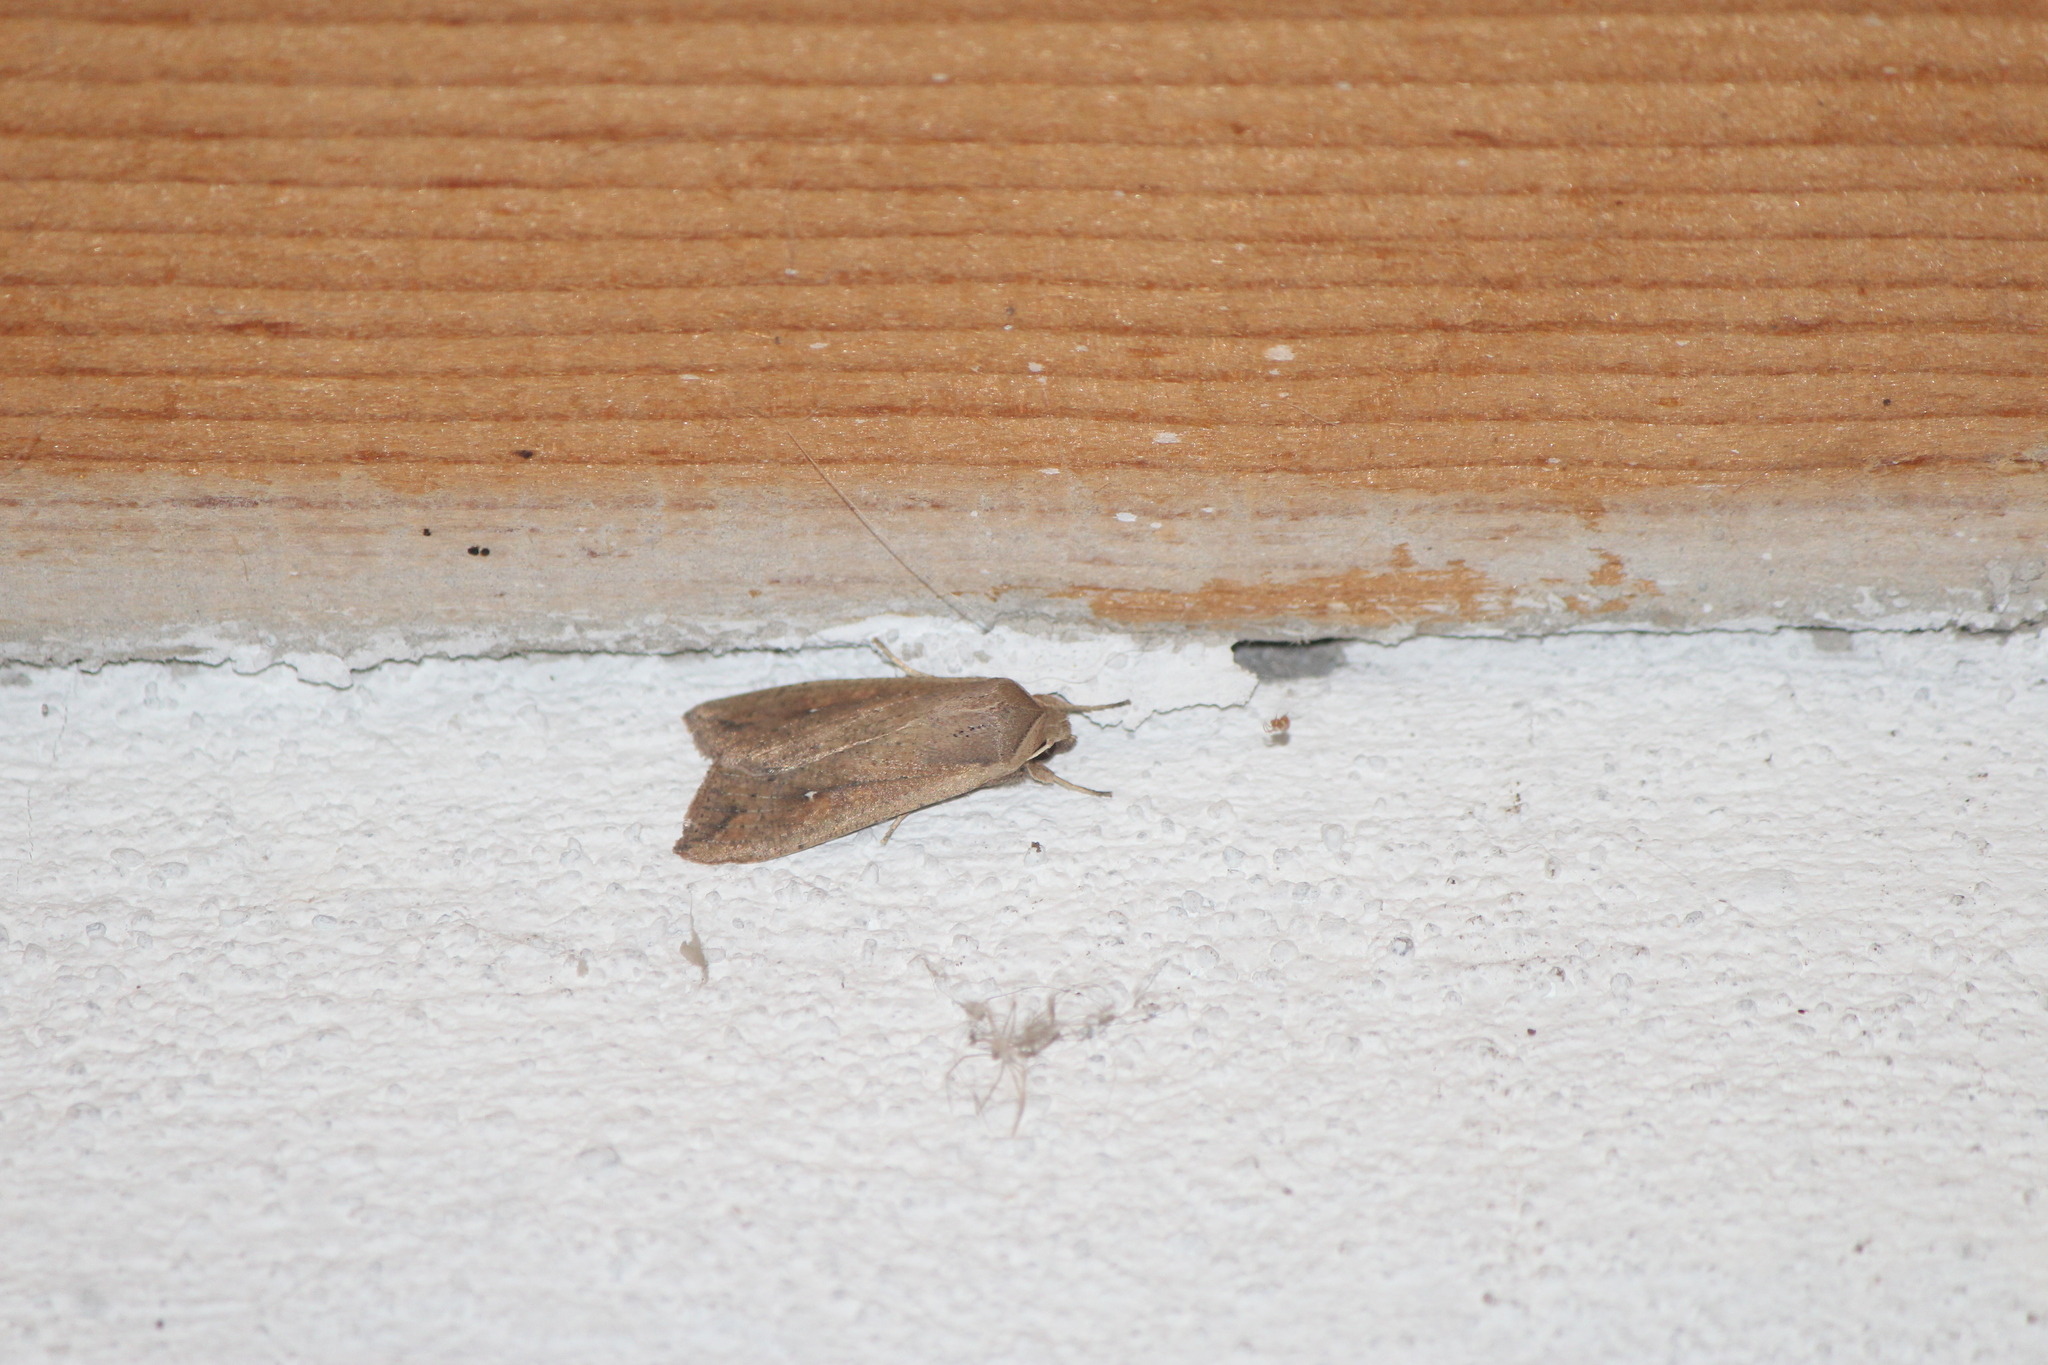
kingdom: Animalia
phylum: Arthropoda
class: Insecta
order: Lepidoptera
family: Noctuidae
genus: Mythimna
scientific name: Mythimna unipuncta
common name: White-speck
